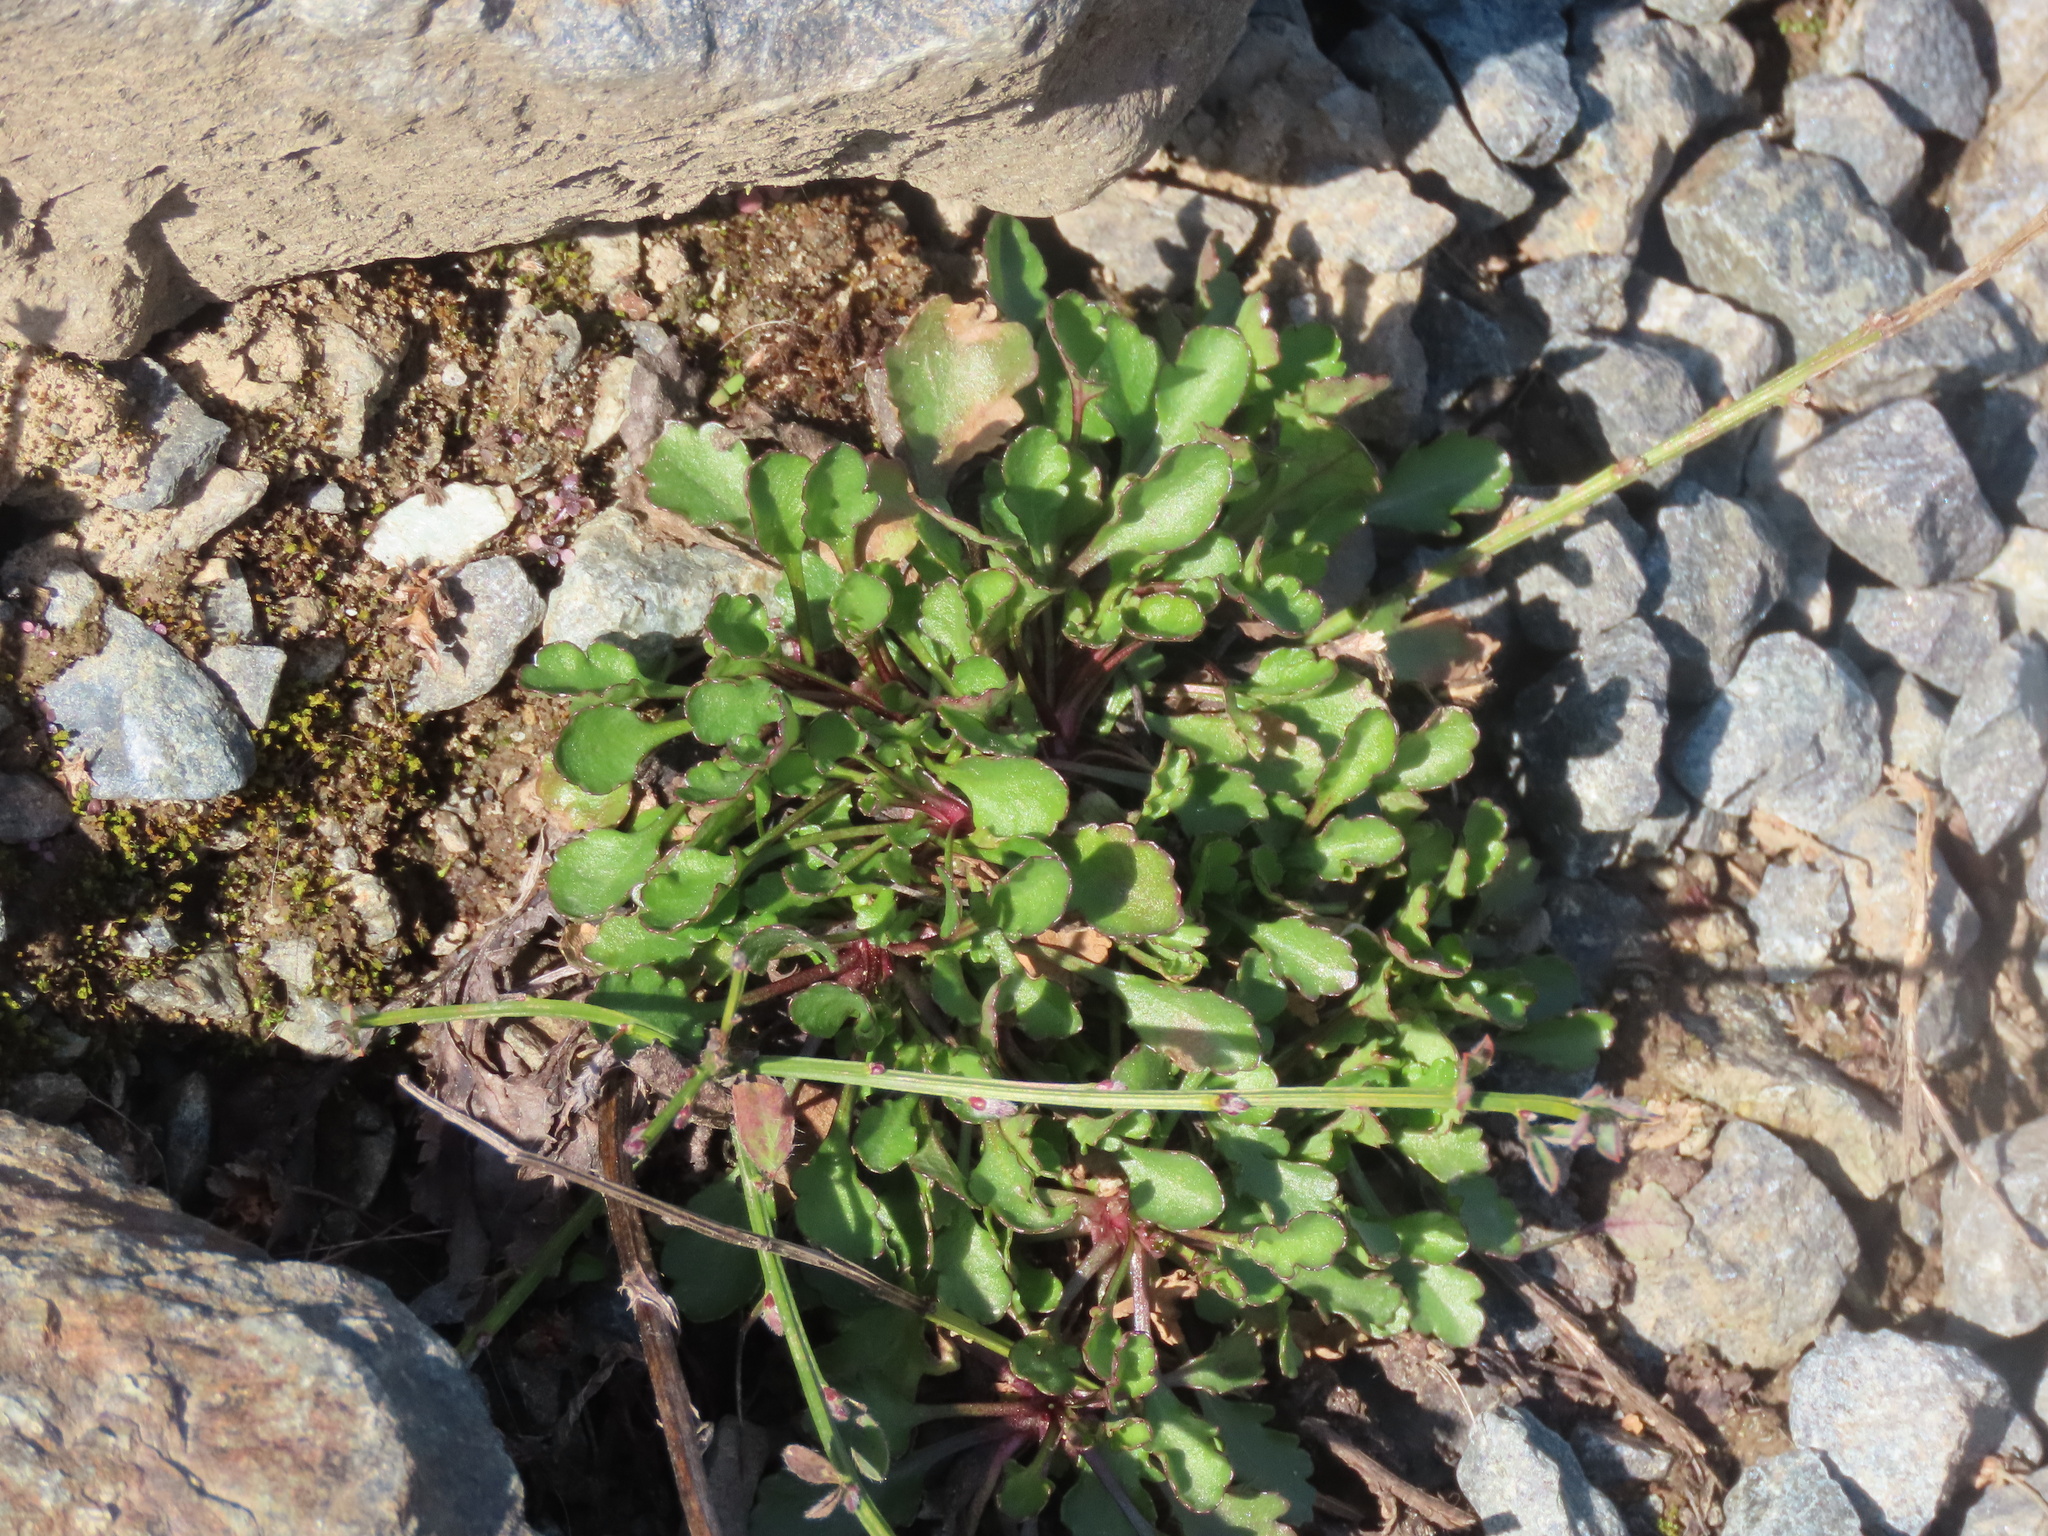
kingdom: Plantae
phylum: Tracheophyta
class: Magnoliopsida
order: Asterales
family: Asteraceae
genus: Leucanthemum
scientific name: Leucanthemum vulgare
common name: Oxeye daisy
